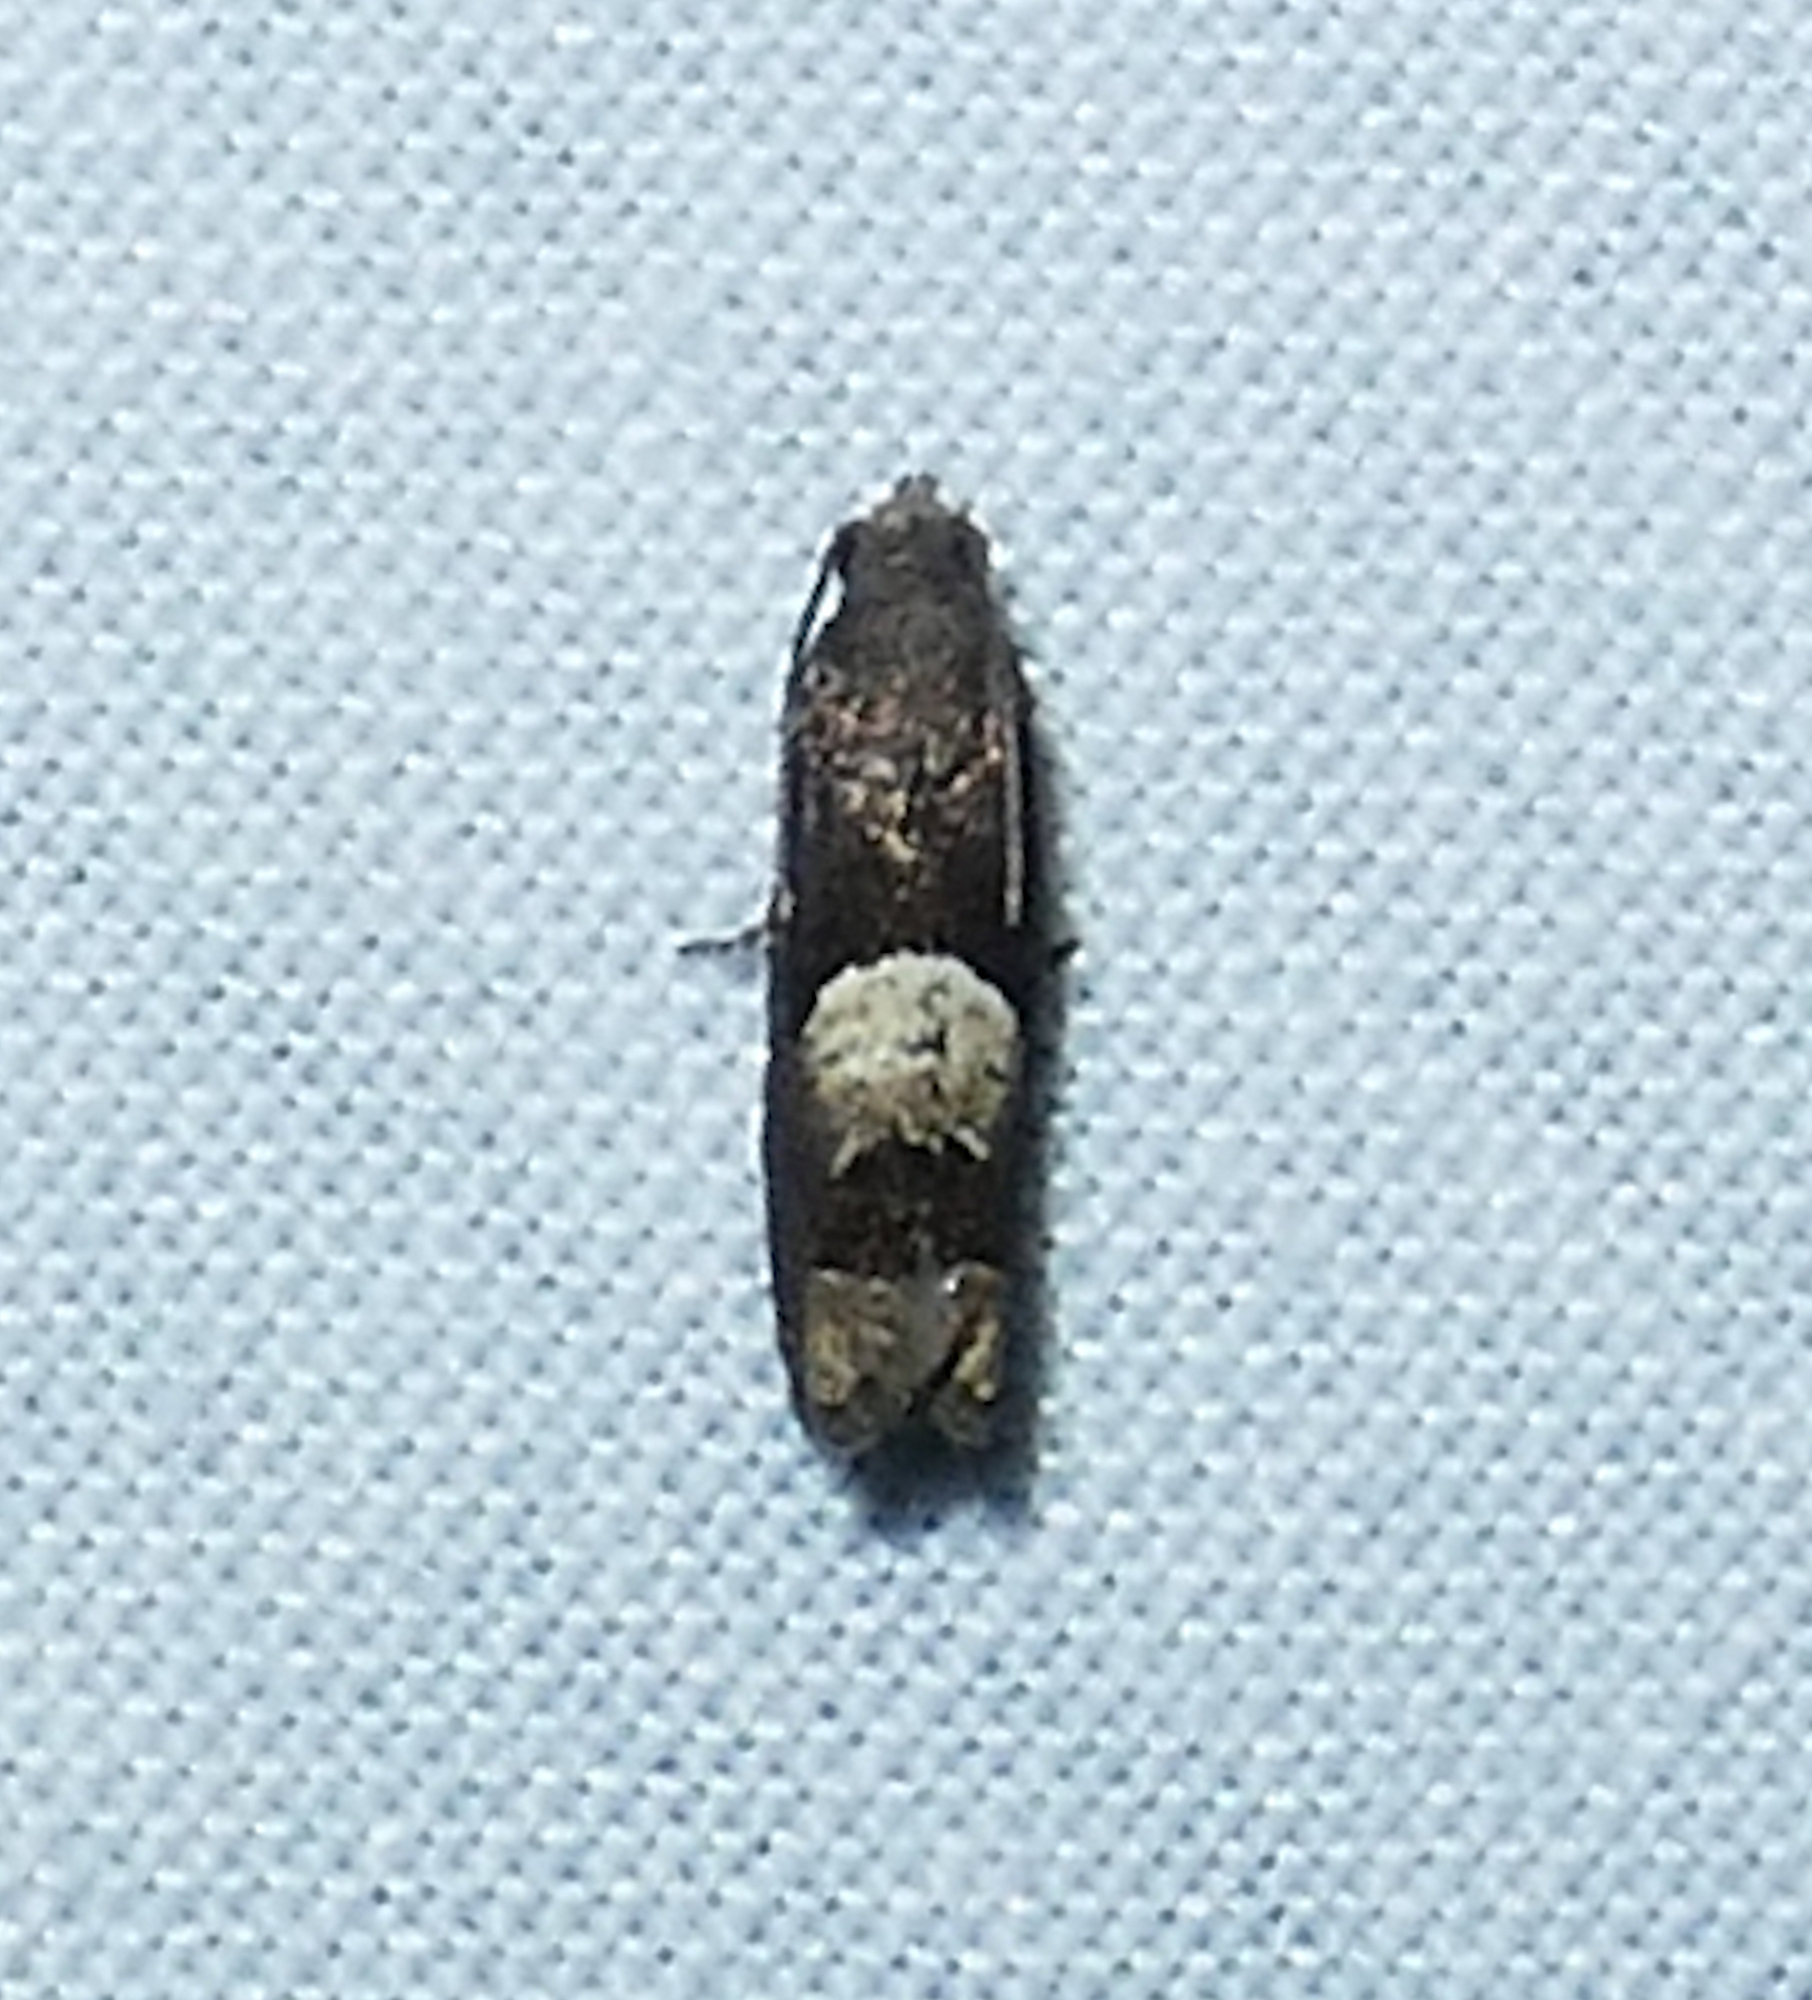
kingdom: Animalia
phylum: Arthropoda
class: Insecta
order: Lepidoptera
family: Tortricidae
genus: Epiblema
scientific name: Epiblema boxcana
